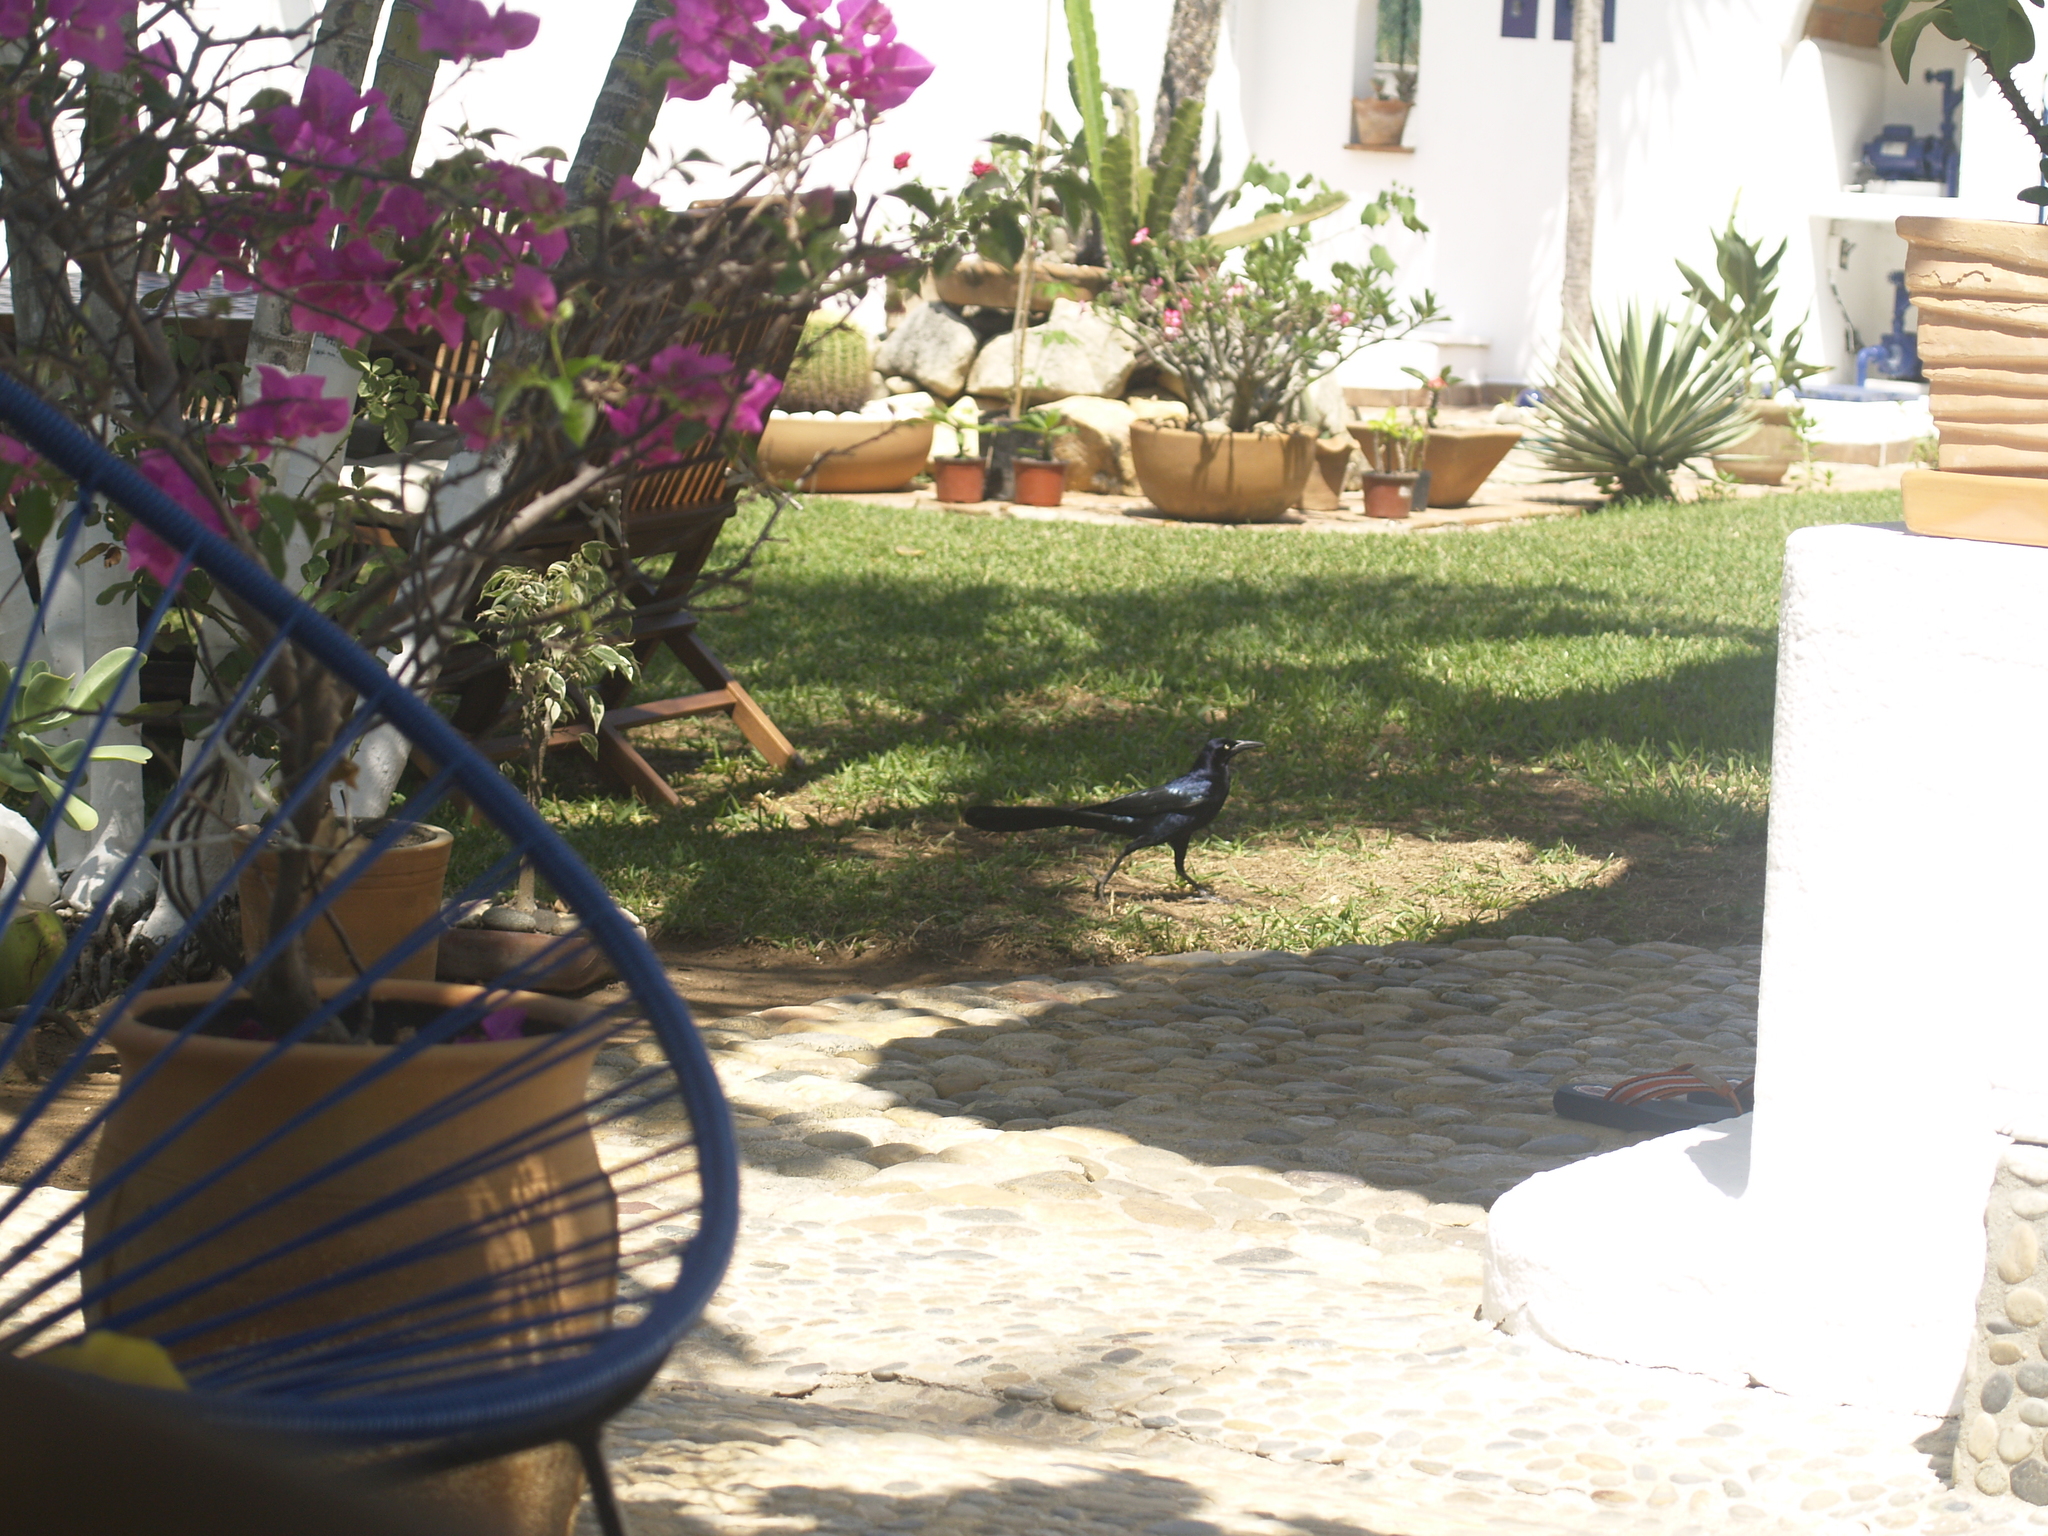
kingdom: Animalia
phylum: Chordata
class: Aves
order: Passeriformes
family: Icteridae
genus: Quiscalus
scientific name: Quiscalus mexicanus
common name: Great-tailed grackle
